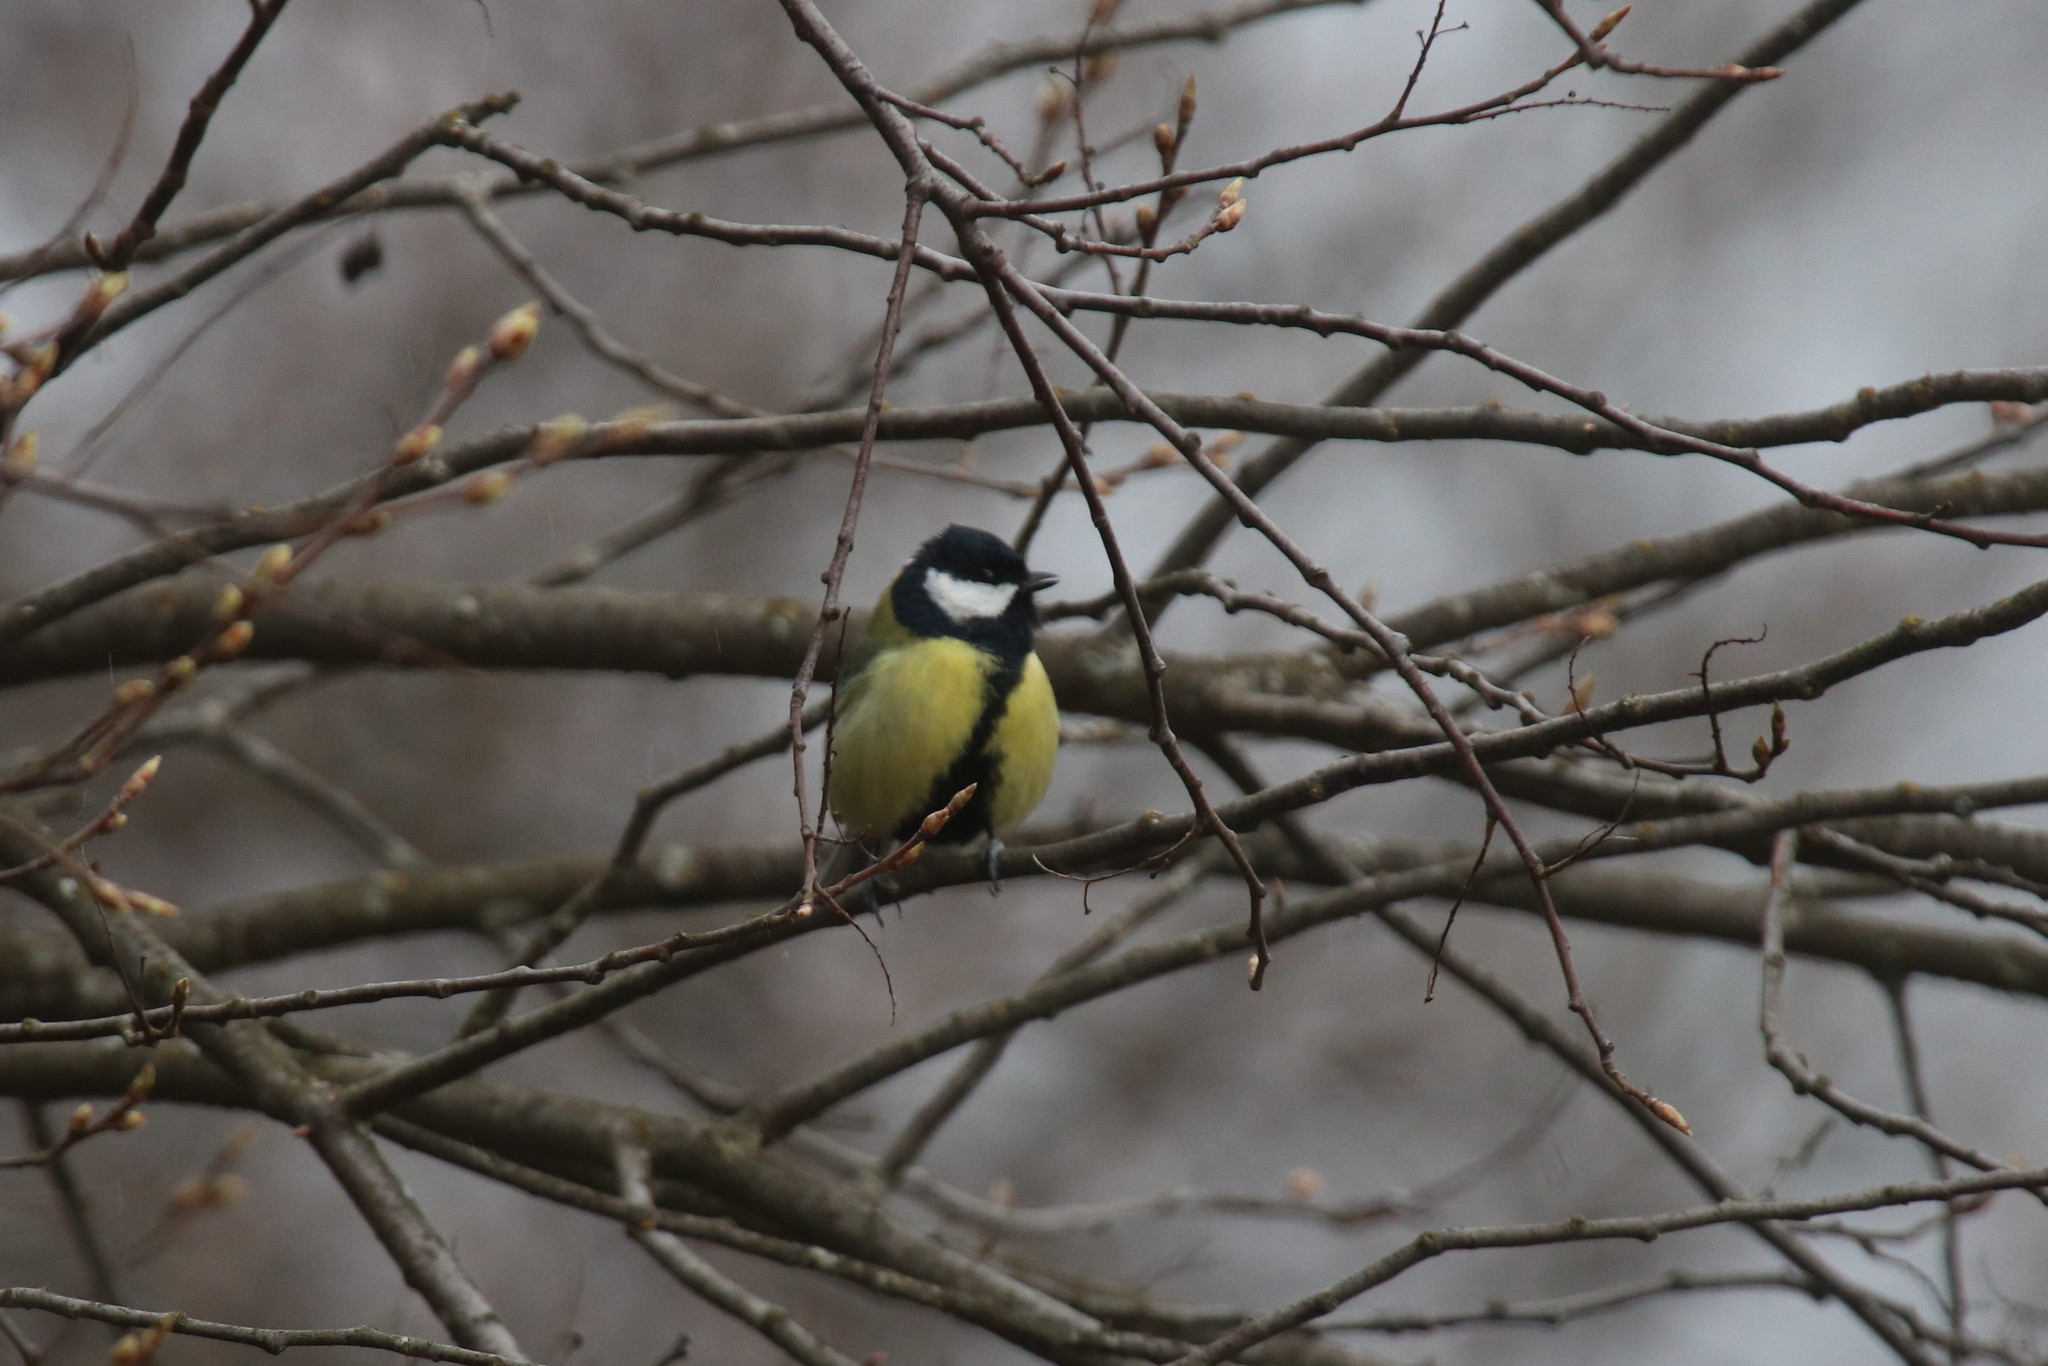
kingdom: Animalia
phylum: Chordata
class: Aves
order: Passeriformes
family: Paridae
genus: Parus
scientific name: Parus major
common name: Great tit
